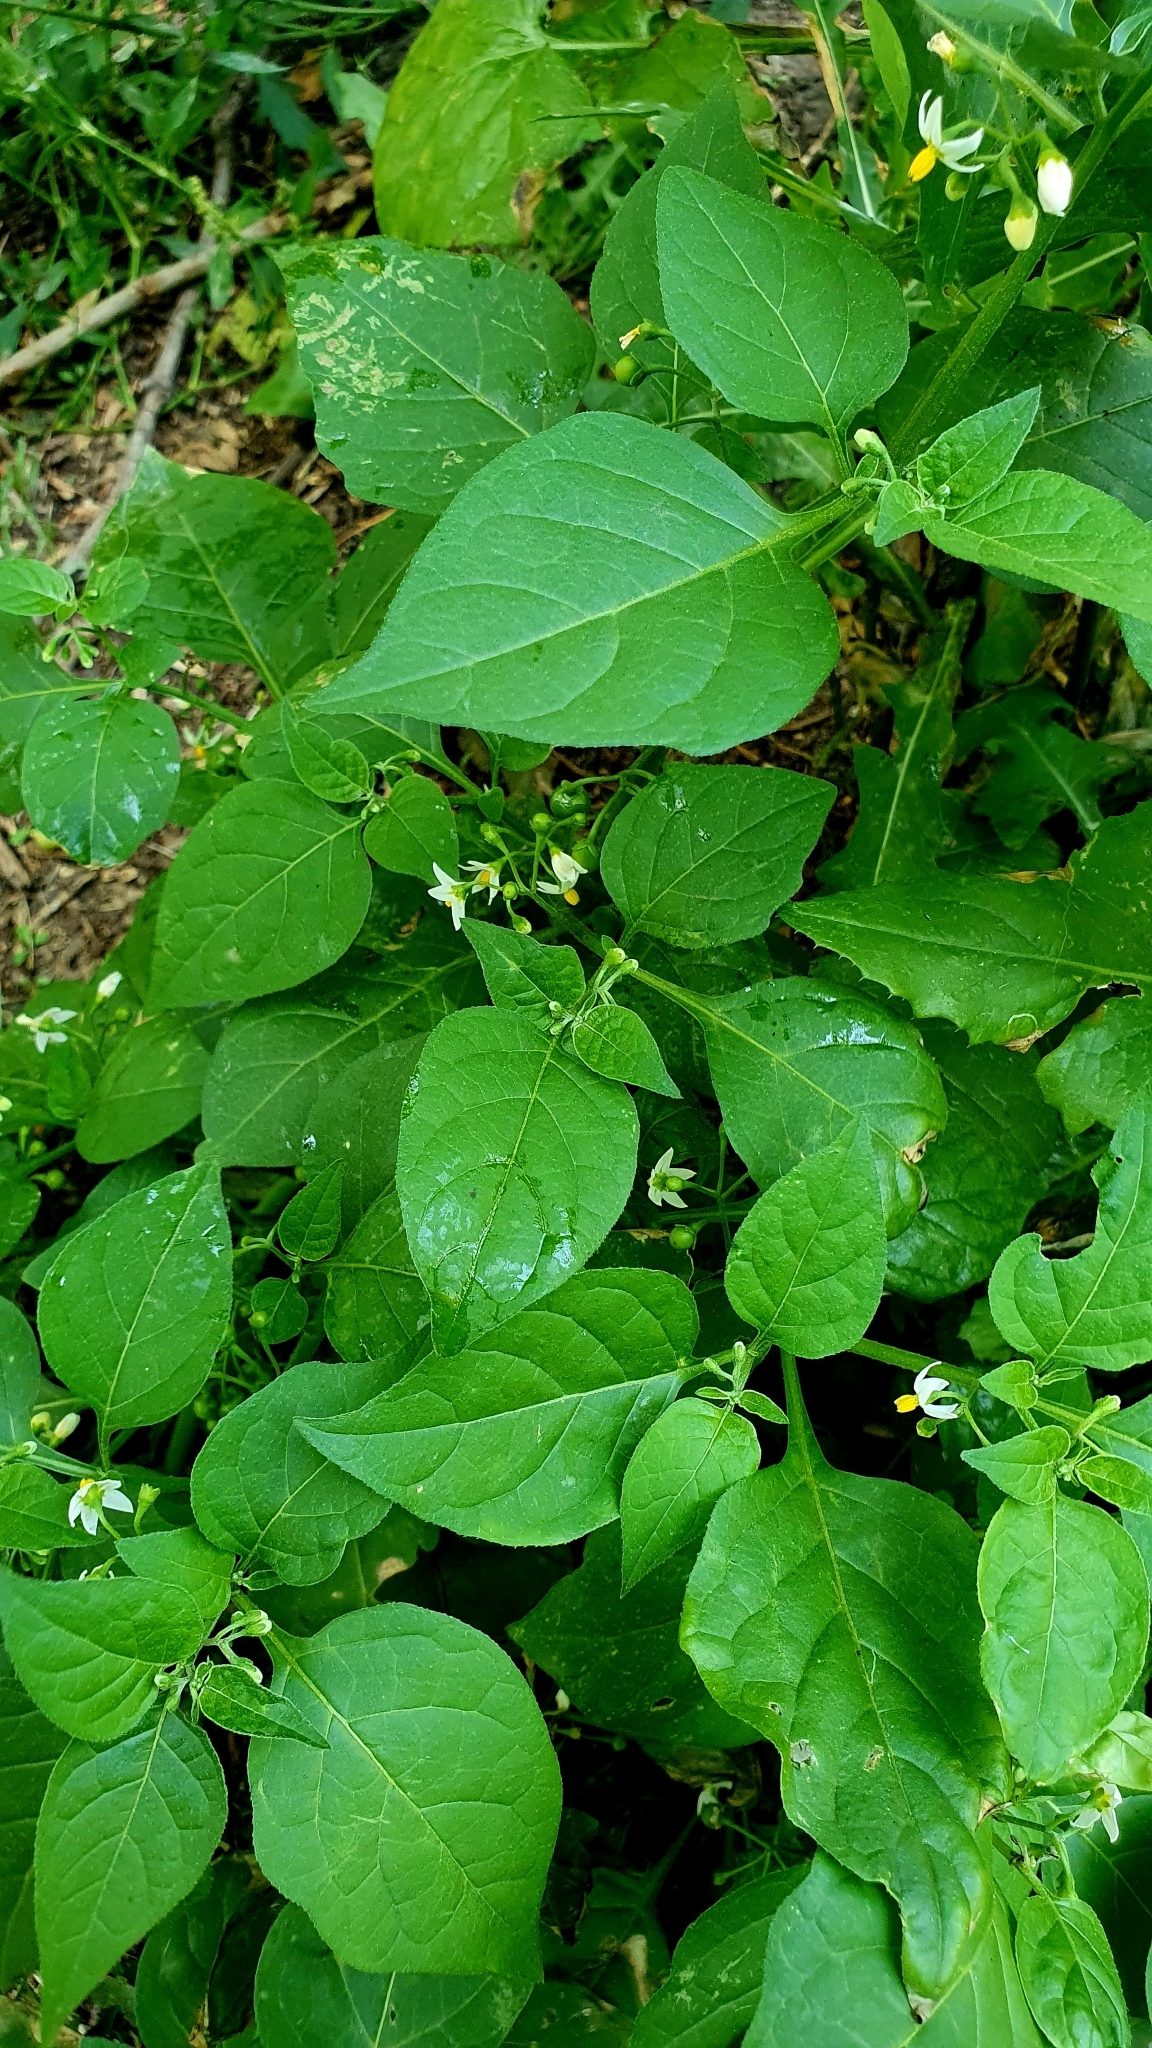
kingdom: Plantae
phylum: Tracheophyta
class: Magnoliopsida
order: Solanales
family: Solanaceae
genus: Solanum
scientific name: Solanum nigrum
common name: Black nightshade
